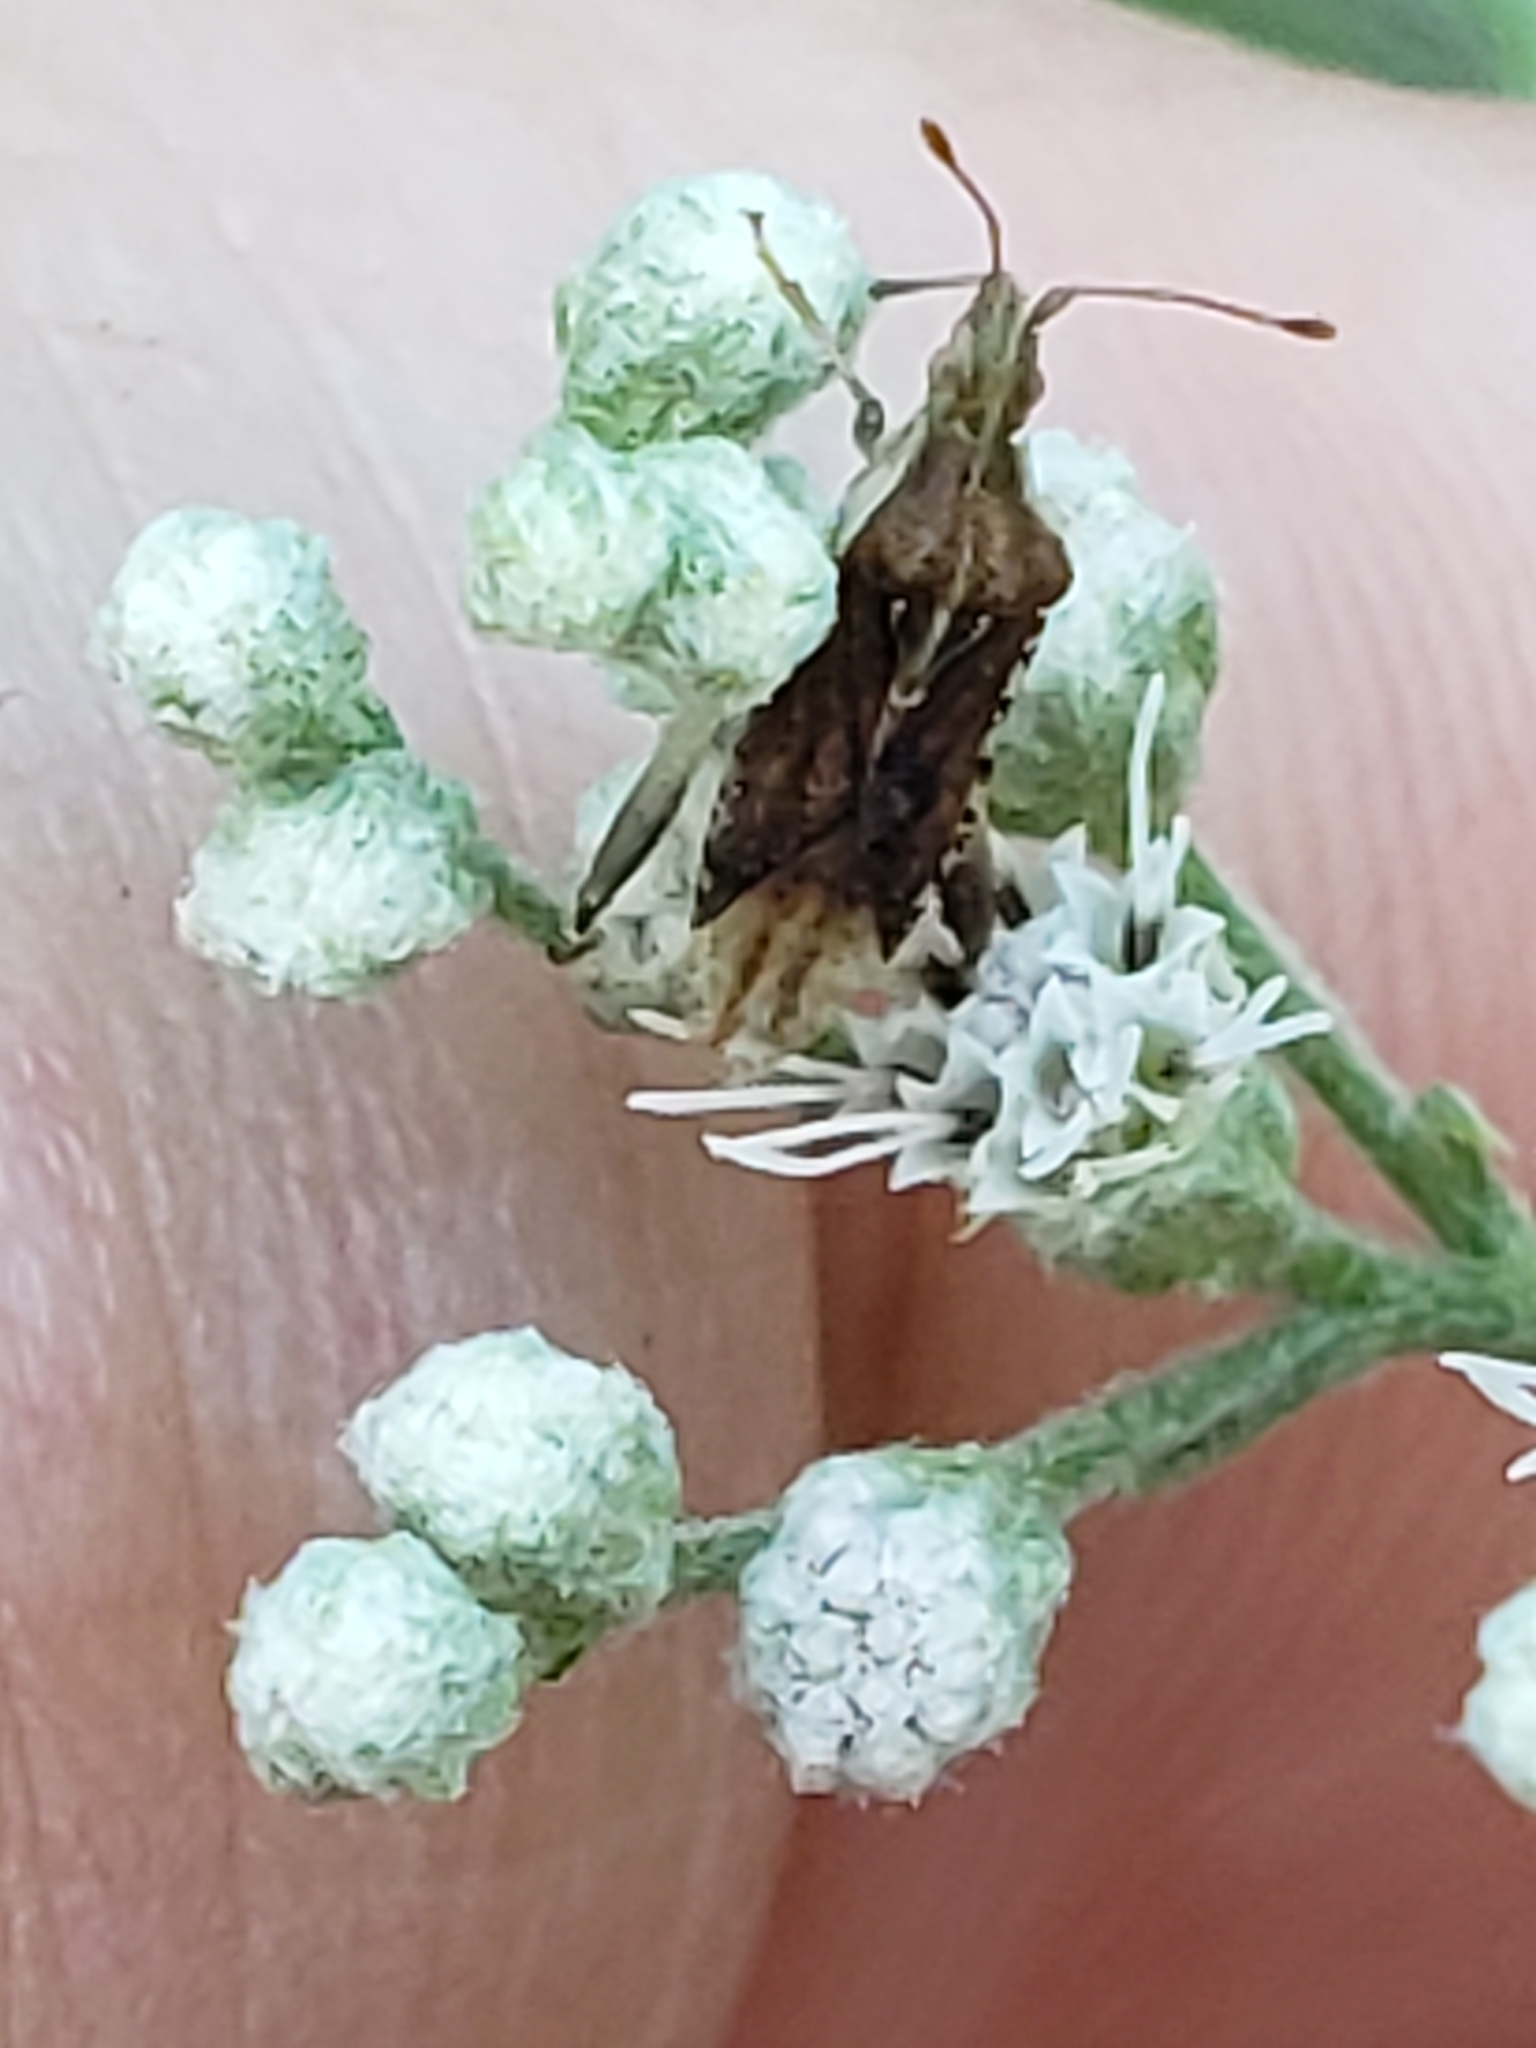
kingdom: Animalia
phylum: Arthropoda
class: Insecta
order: Hemiptera
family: Rhopalidae
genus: Harmostes
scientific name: Harmostes fraterculus
